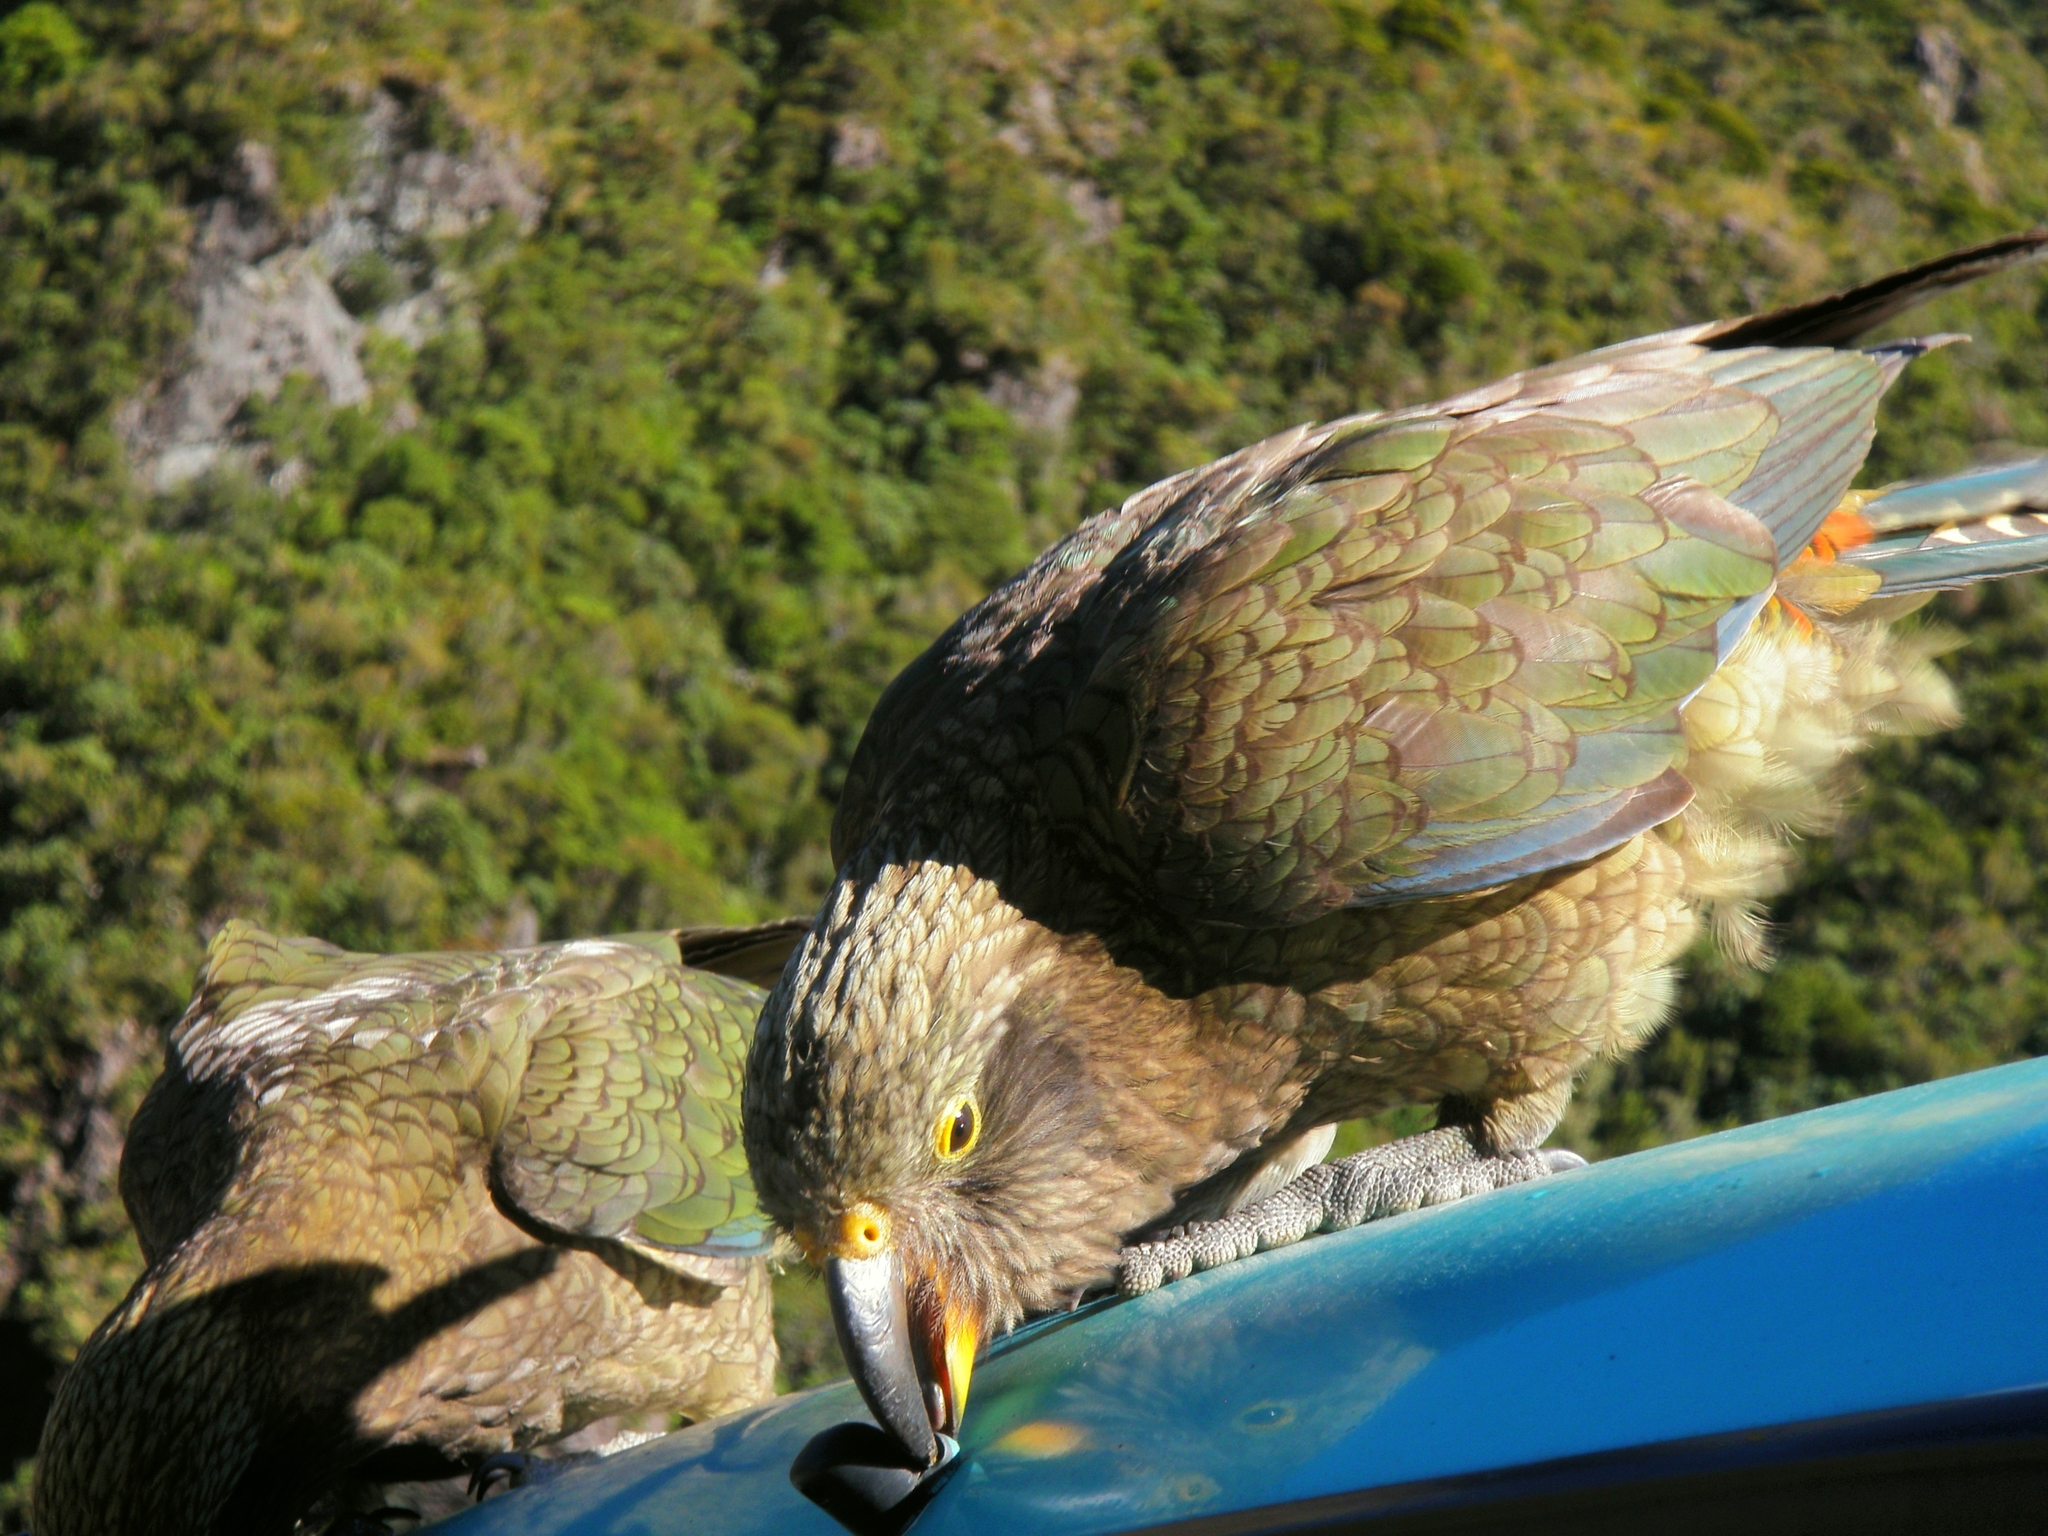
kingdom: Animalia
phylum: Chordata
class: Aves
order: Psittaciformes
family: Psittacidae
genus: Nestor
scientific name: Nestor notabilis
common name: Kea
